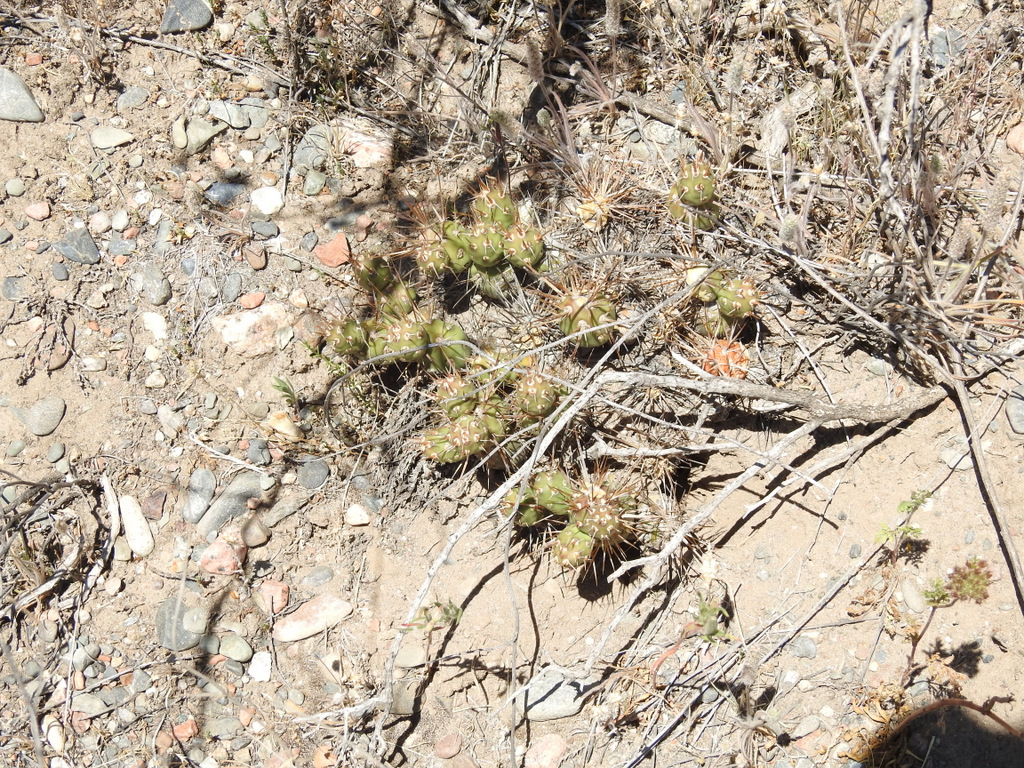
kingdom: Plantae
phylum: Tracheophyta
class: Magnoliopsida
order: Caryophyllales
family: Cactaceae
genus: Maihueniopsis
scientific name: Maihueniopsis darwinii
